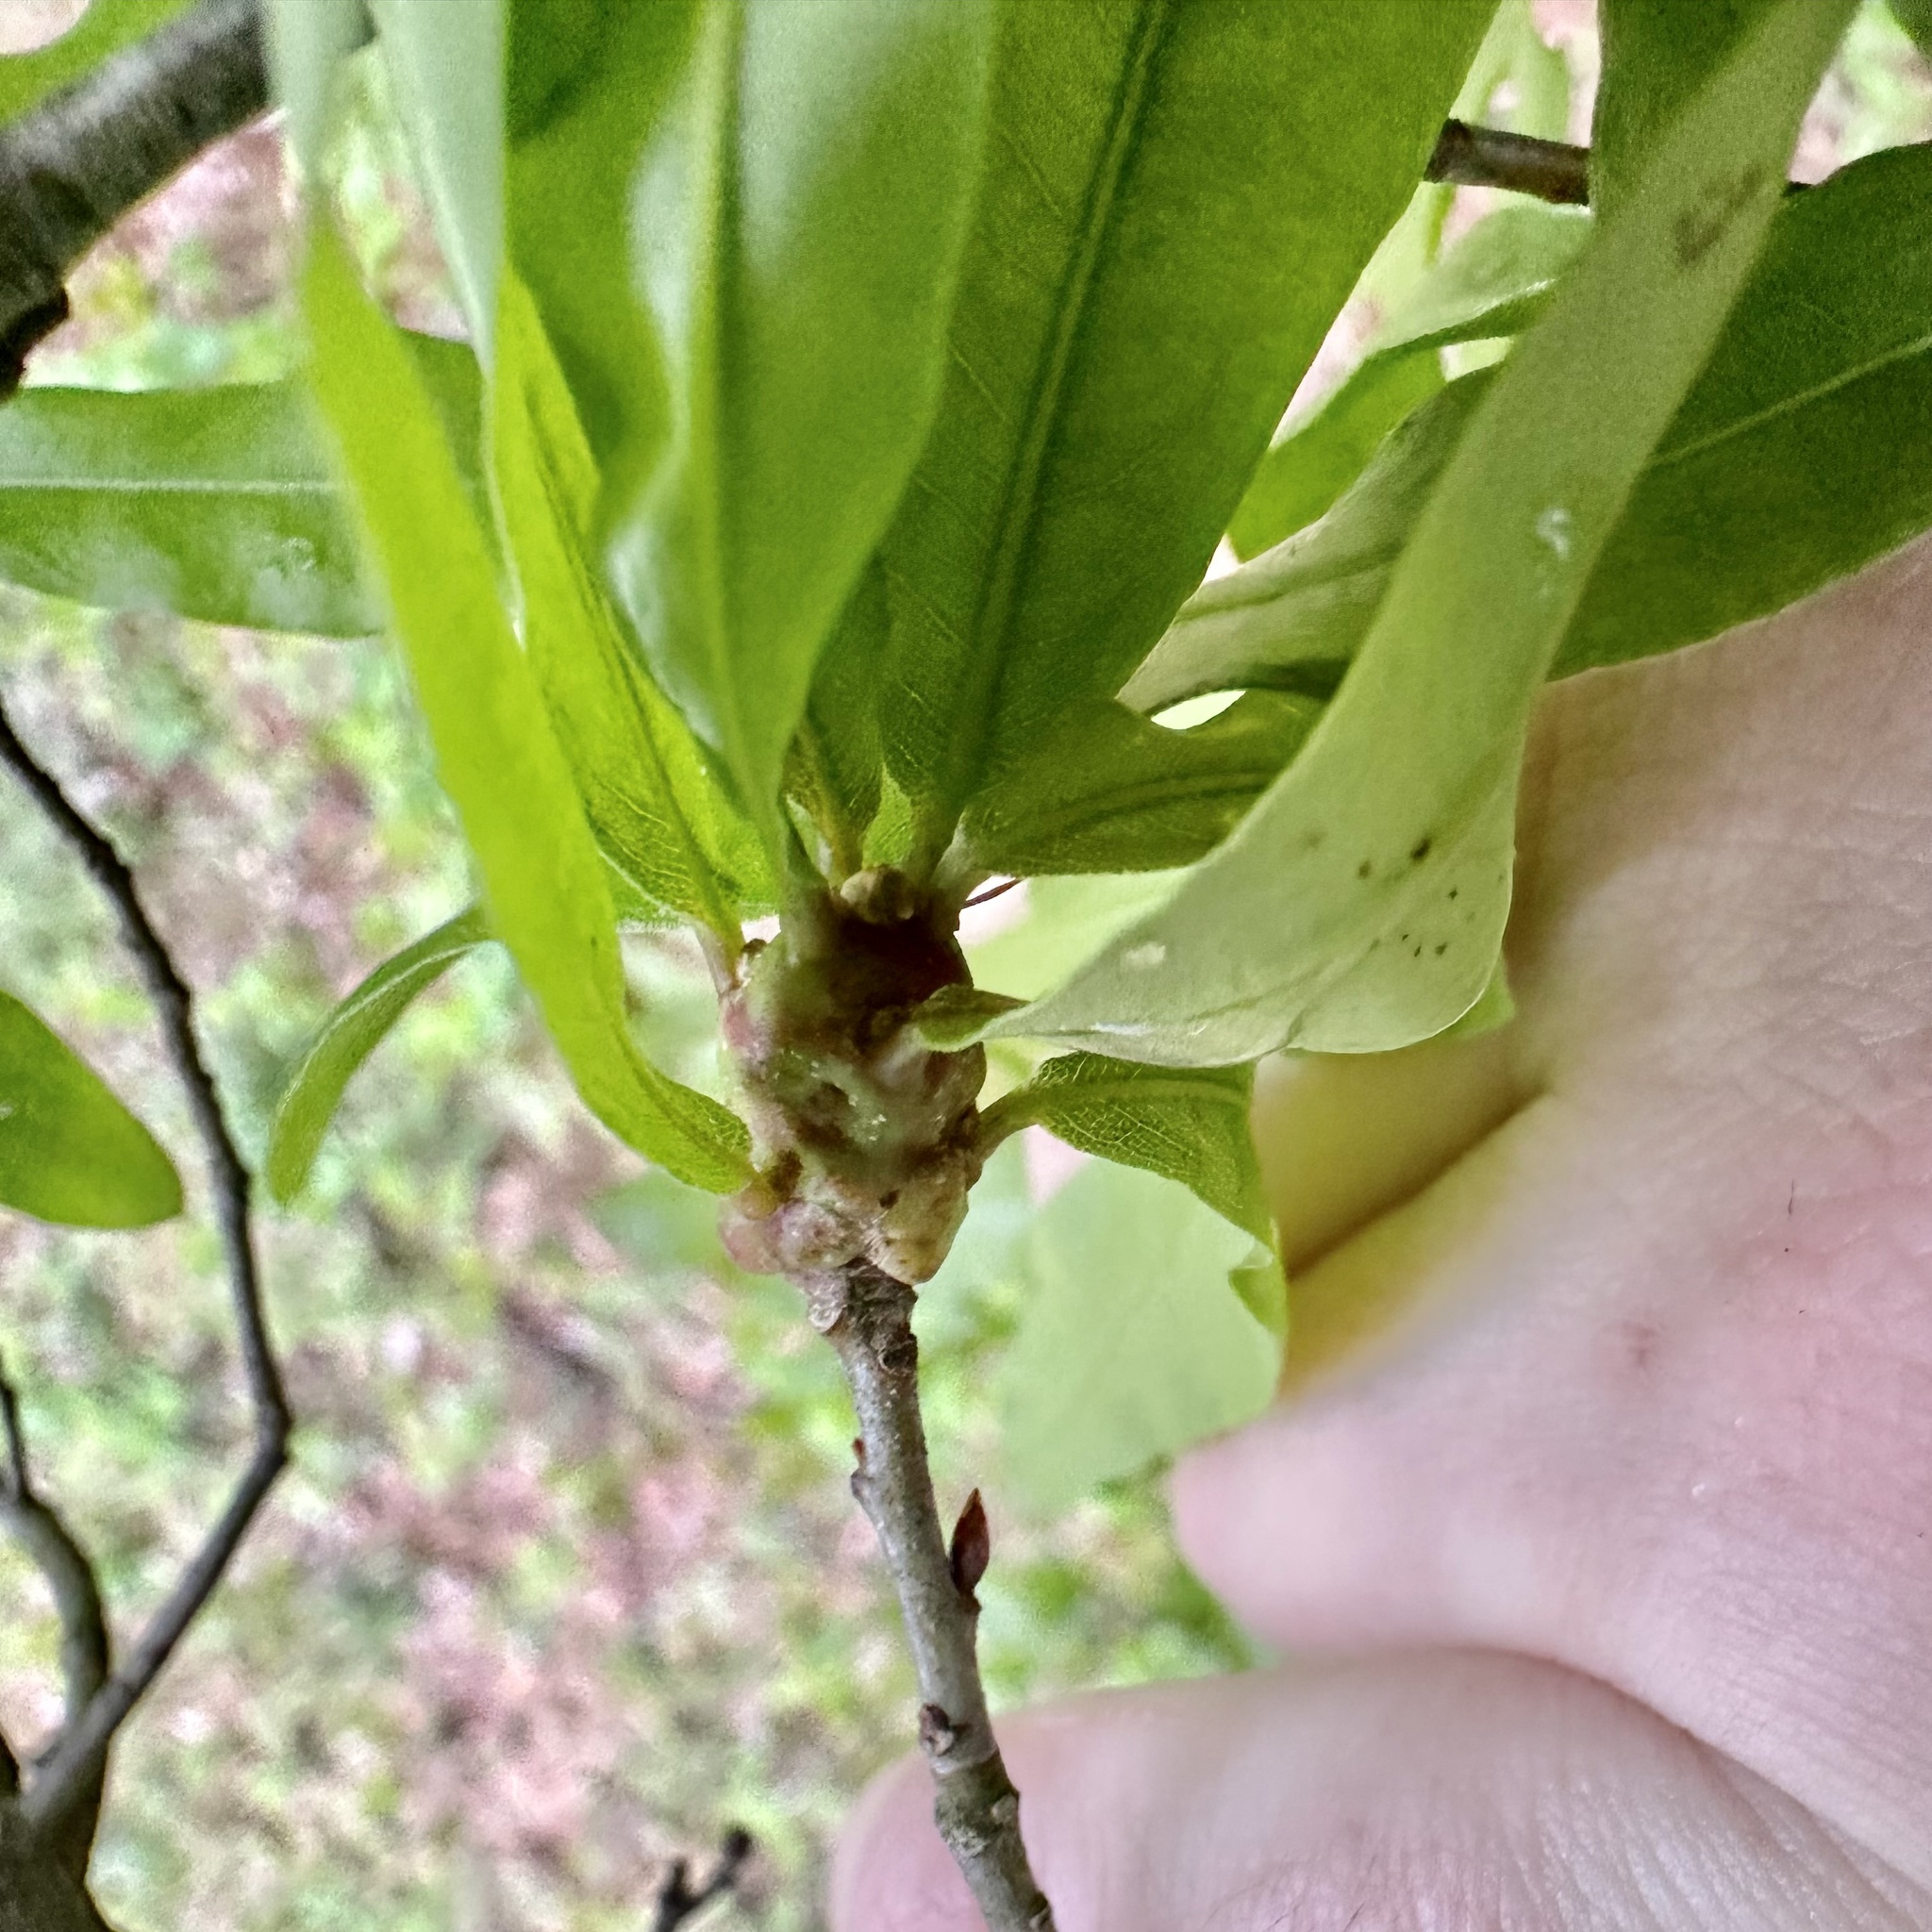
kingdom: Animalia
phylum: Arthropoda
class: Insecta
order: Hymenoptera
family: Cynipidae
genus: Callirhytis
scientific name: Callirhytis
